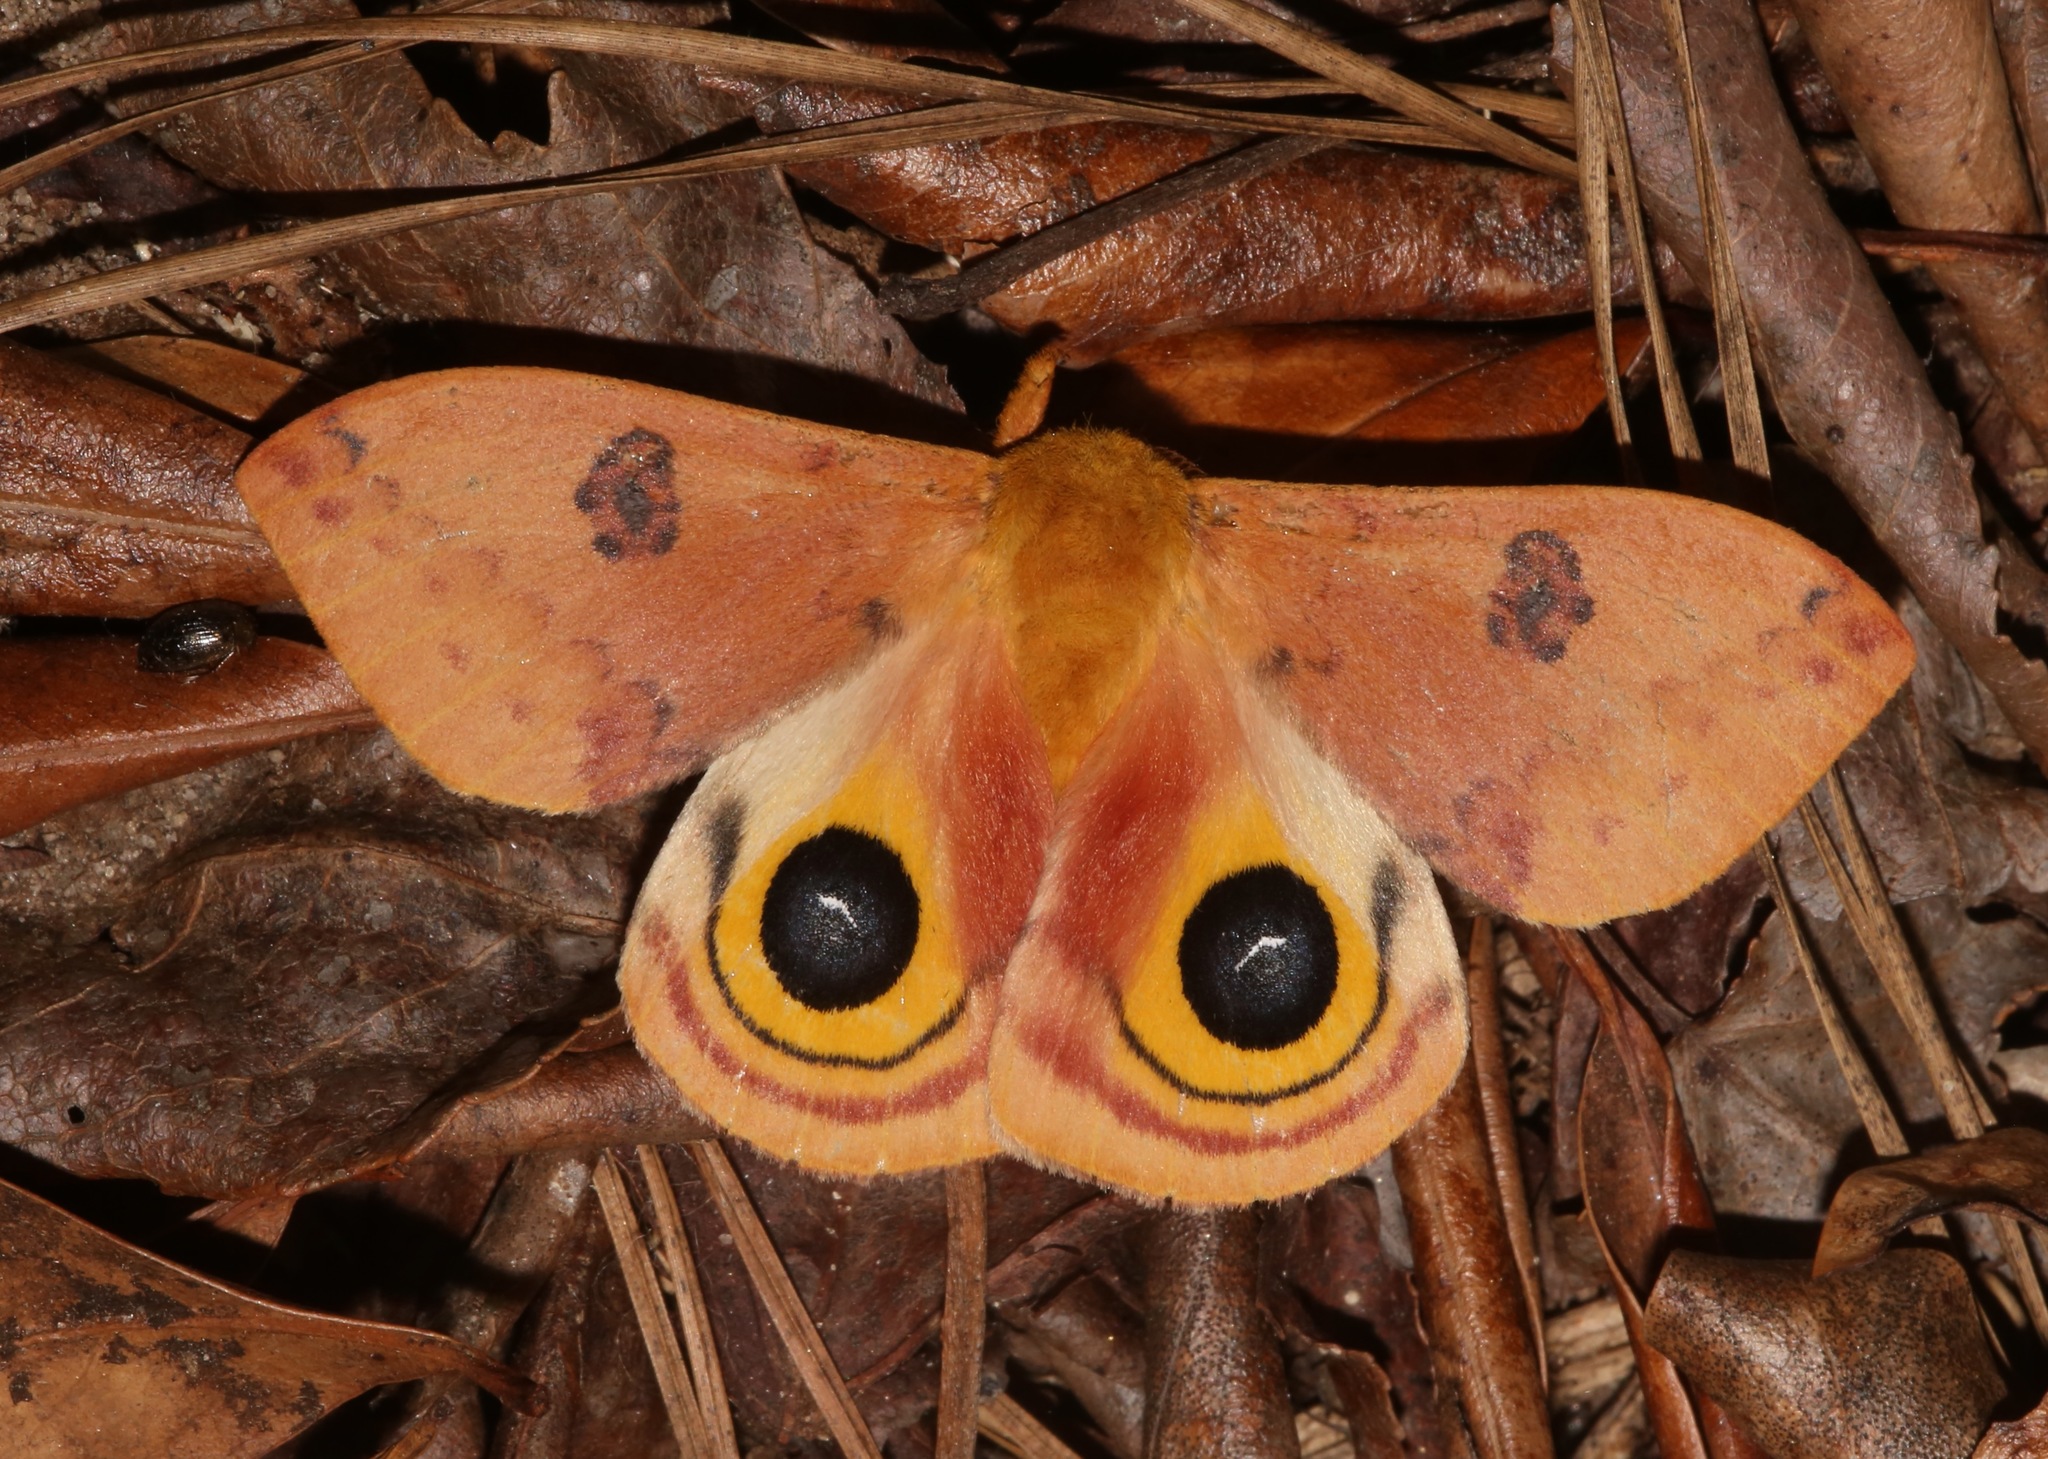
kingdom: Animalia
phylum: Arthropoda
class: Insecta
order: Lepidoptera
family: Saturniidae
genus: Automeris
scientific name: Automeris io
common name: Io moth
